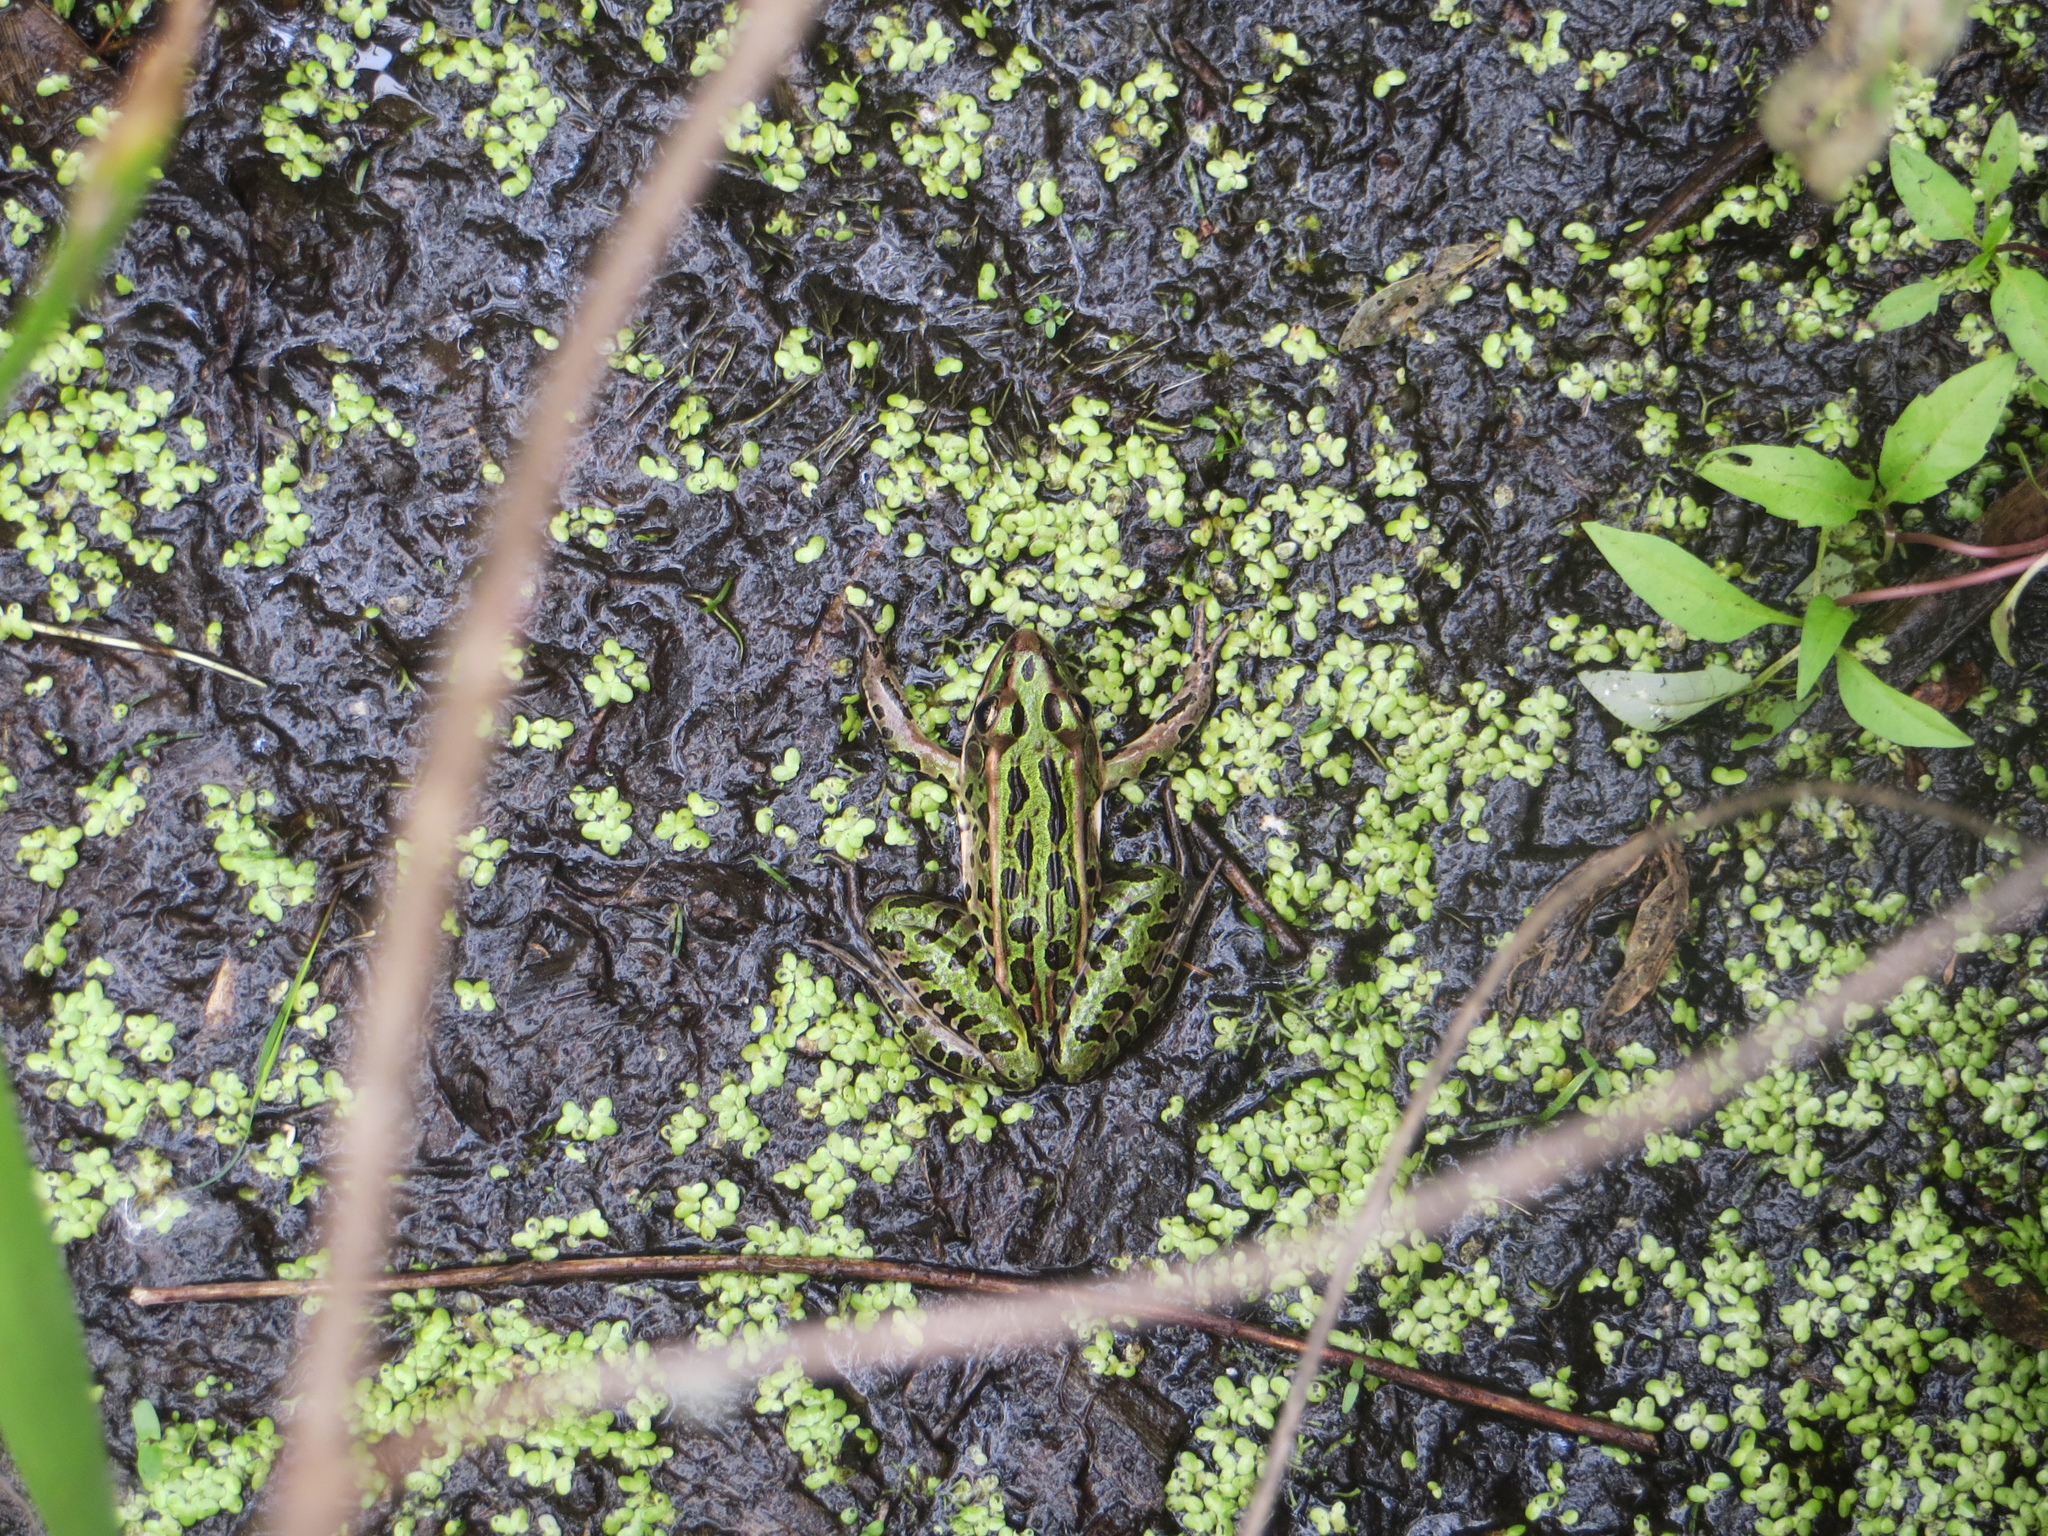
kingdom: Animalia
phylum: Chordata
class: Amphibia
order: Anura
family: Ranidae
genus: Lithobates
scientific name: Lithobates pipiens
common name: Northern leopard frog
